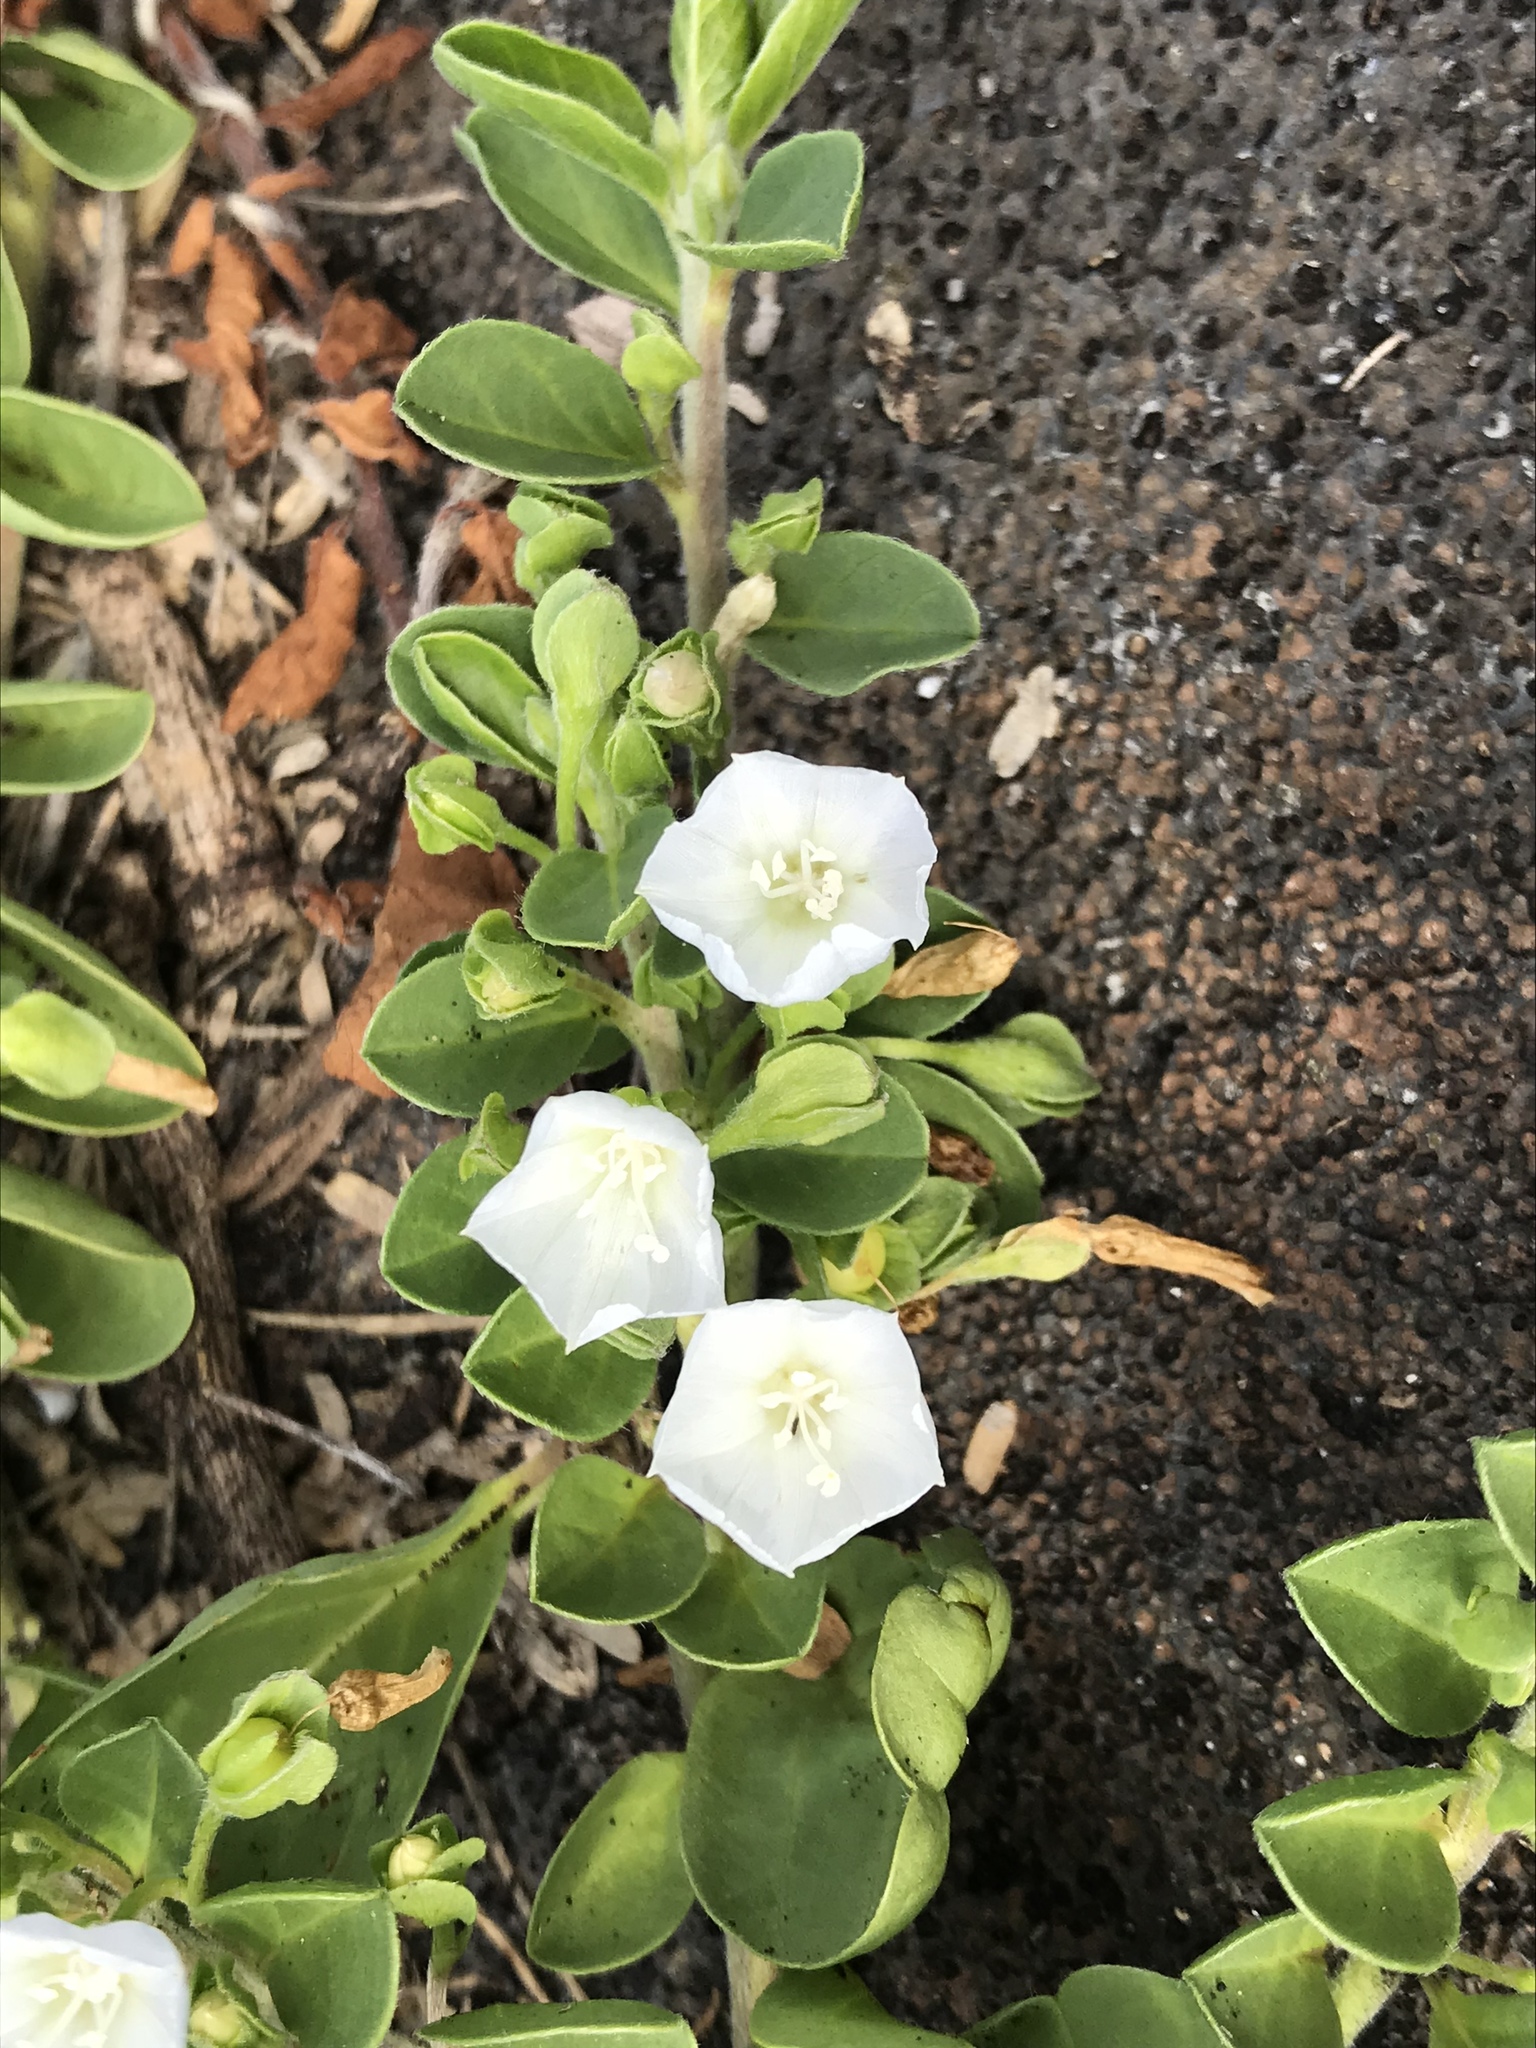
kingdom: Plantae
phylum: Tracheophyta
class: Magnoliopsida
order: Solanales
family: Convolvulaceae
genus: Jacquemontia
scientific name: Jacquemontia sandwicensis
